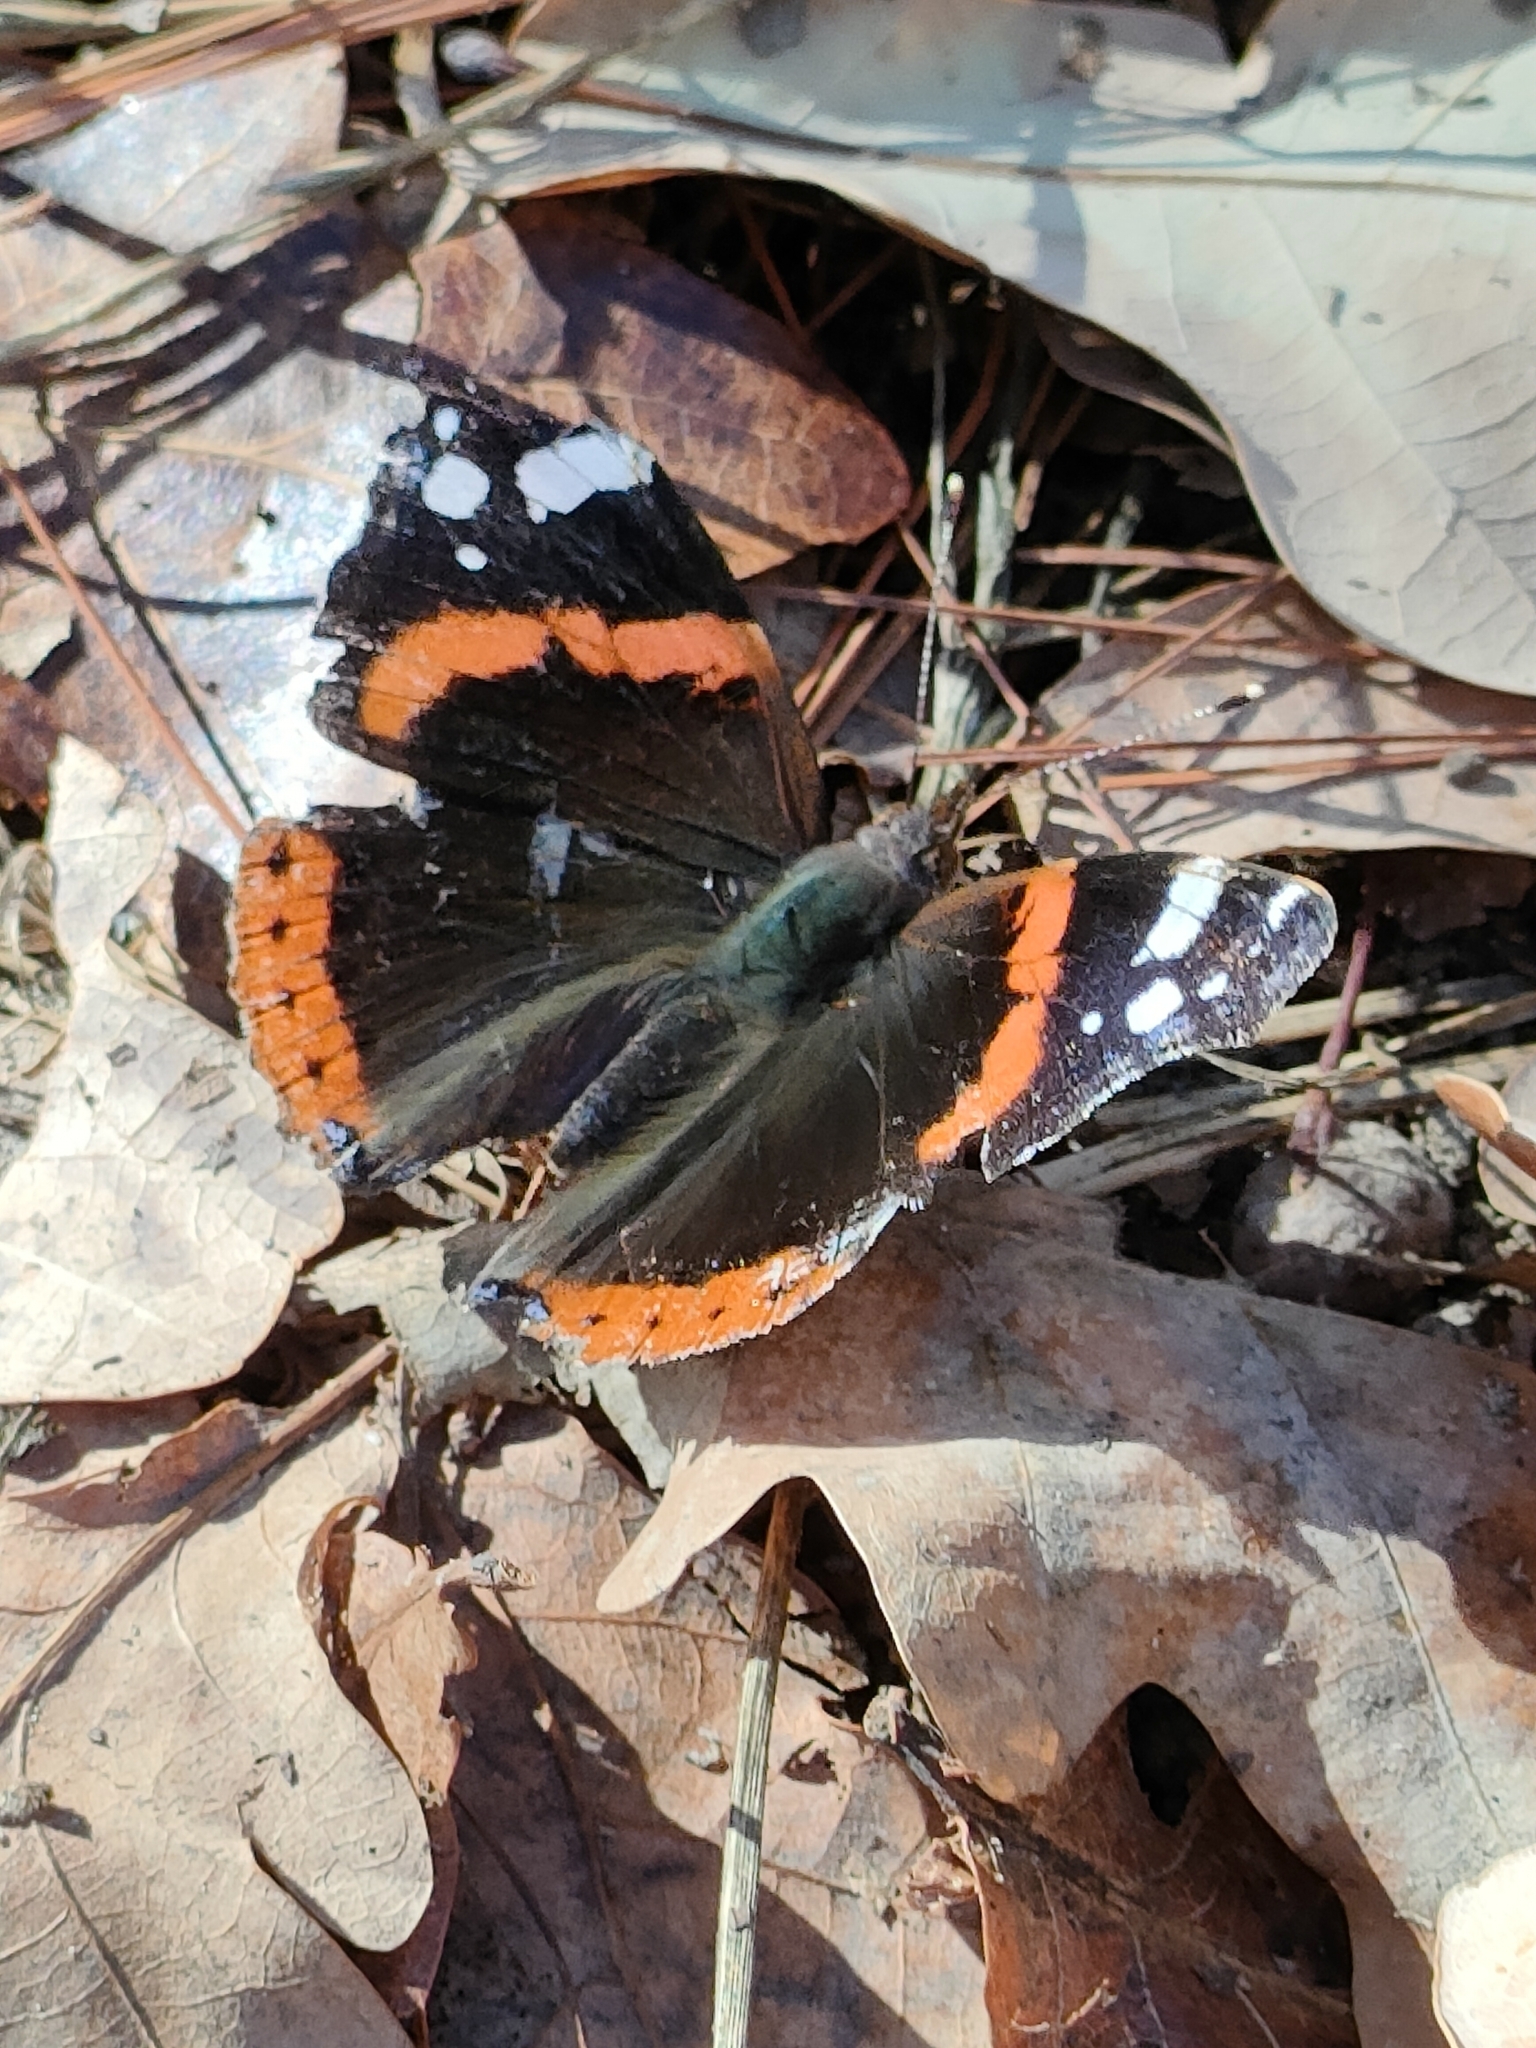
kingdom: Animalia
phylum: Arthropoda
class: Insecta
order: Lepidoptera
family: Nymphalidae
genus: Vanessa
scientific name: Vanessa atalanta
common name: Red admiral
